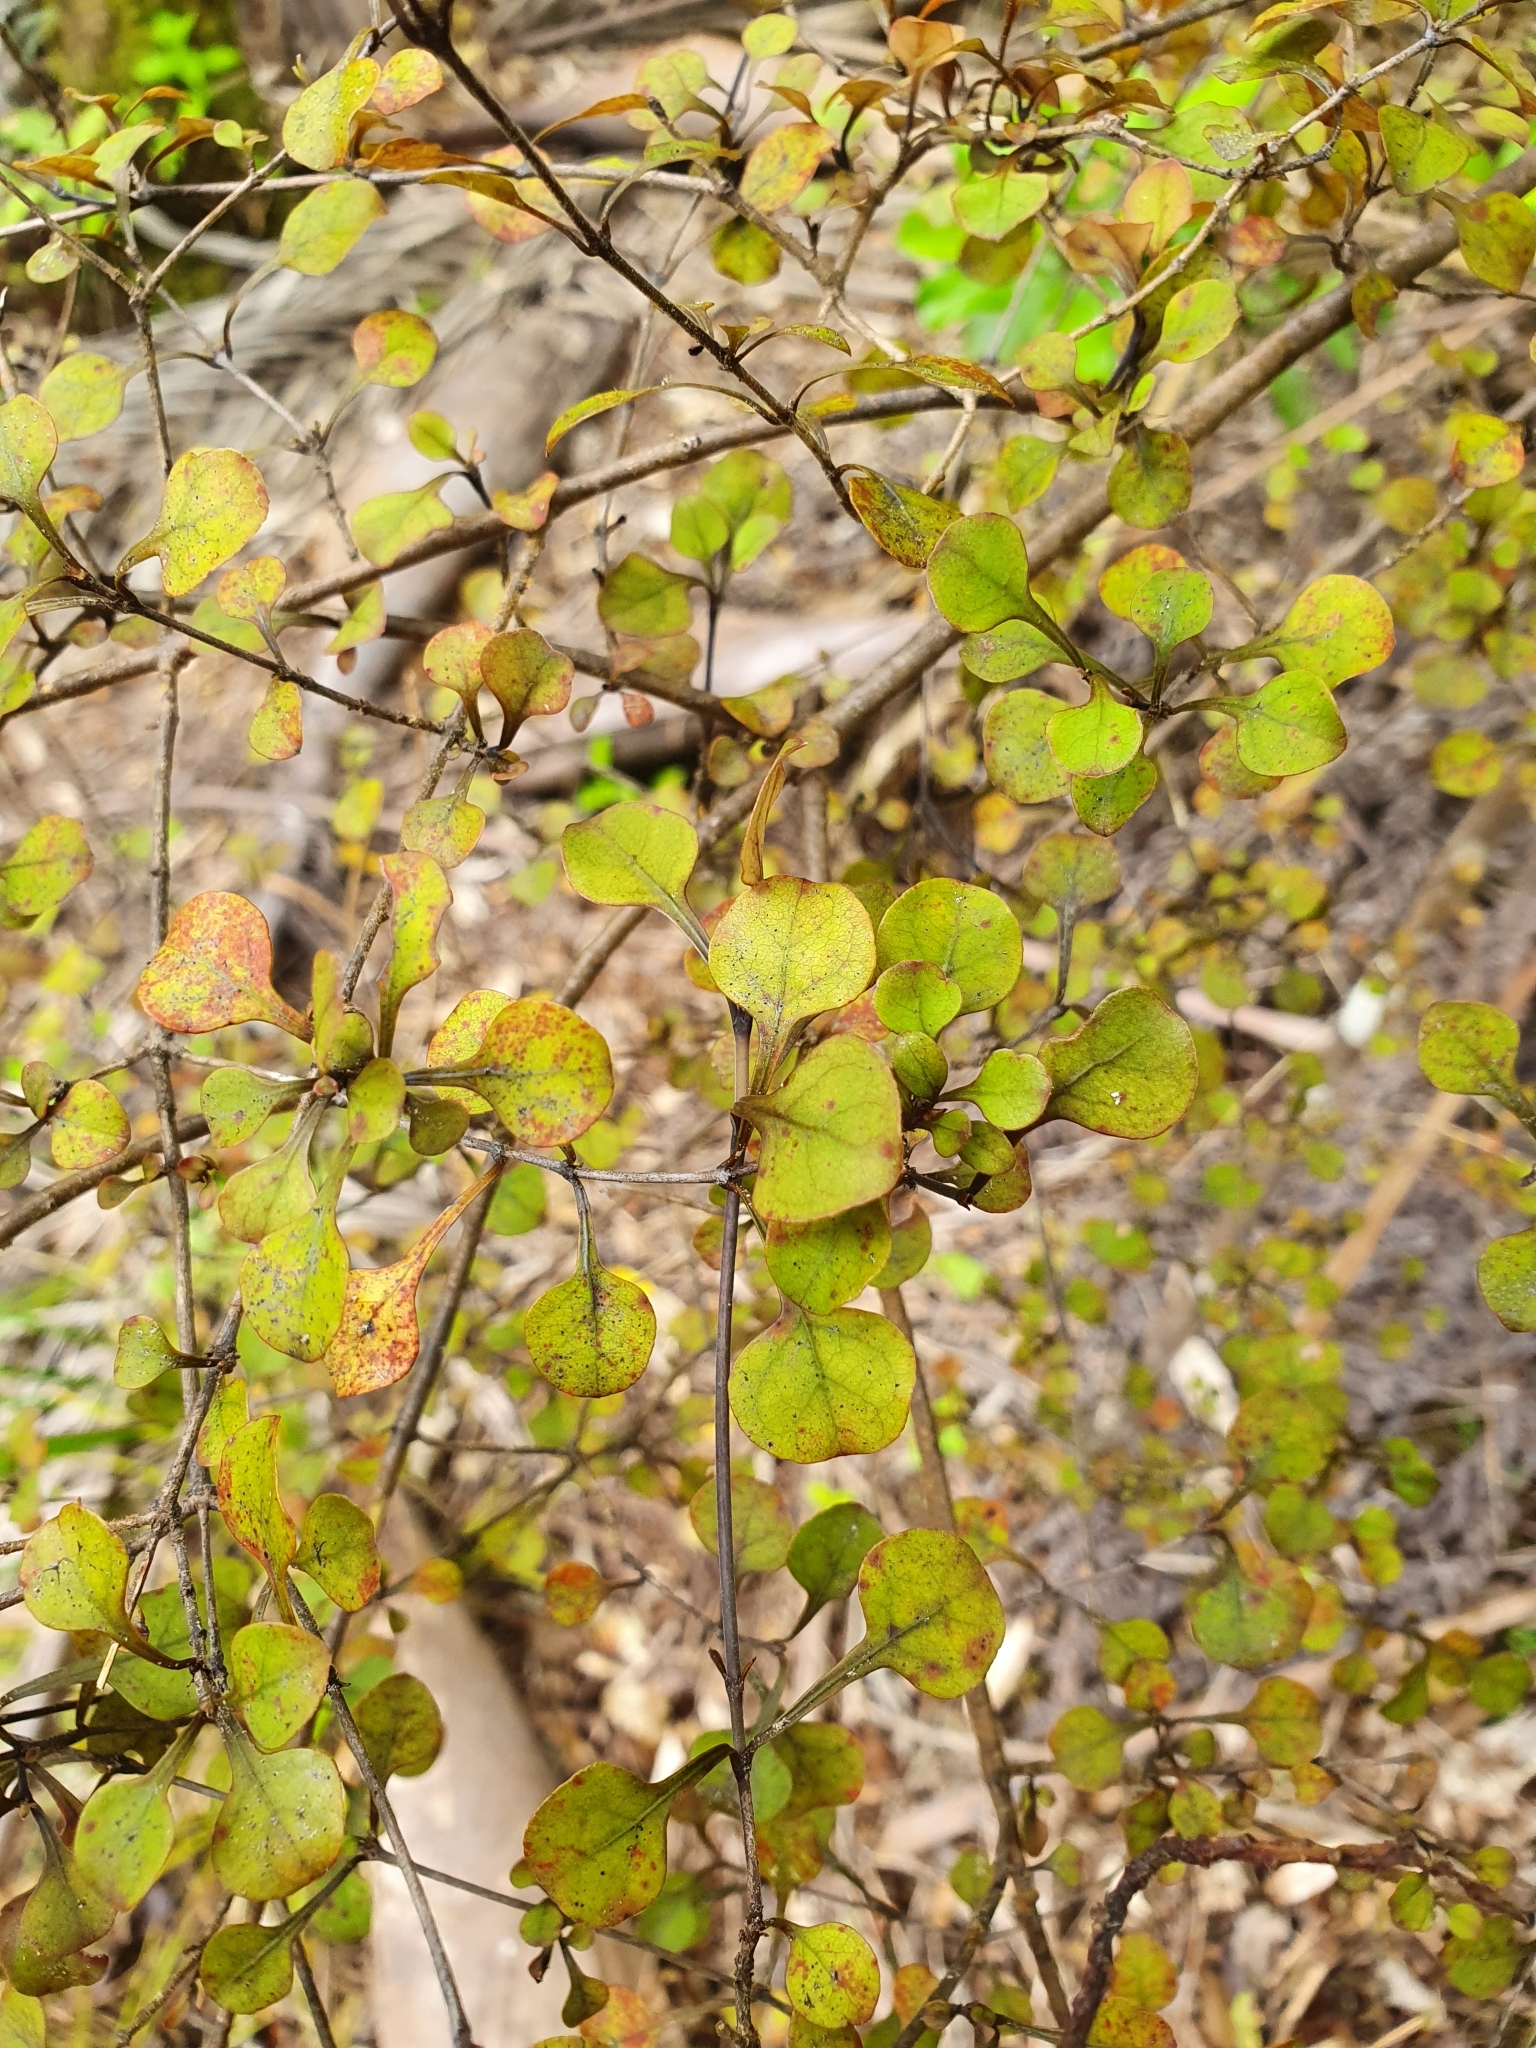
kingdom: Plantae
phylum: Tracheophyta
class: Magnoliopsida
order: Gentianales
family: Rubiaceae
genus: Coprosma
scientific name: Coprosma arborea
